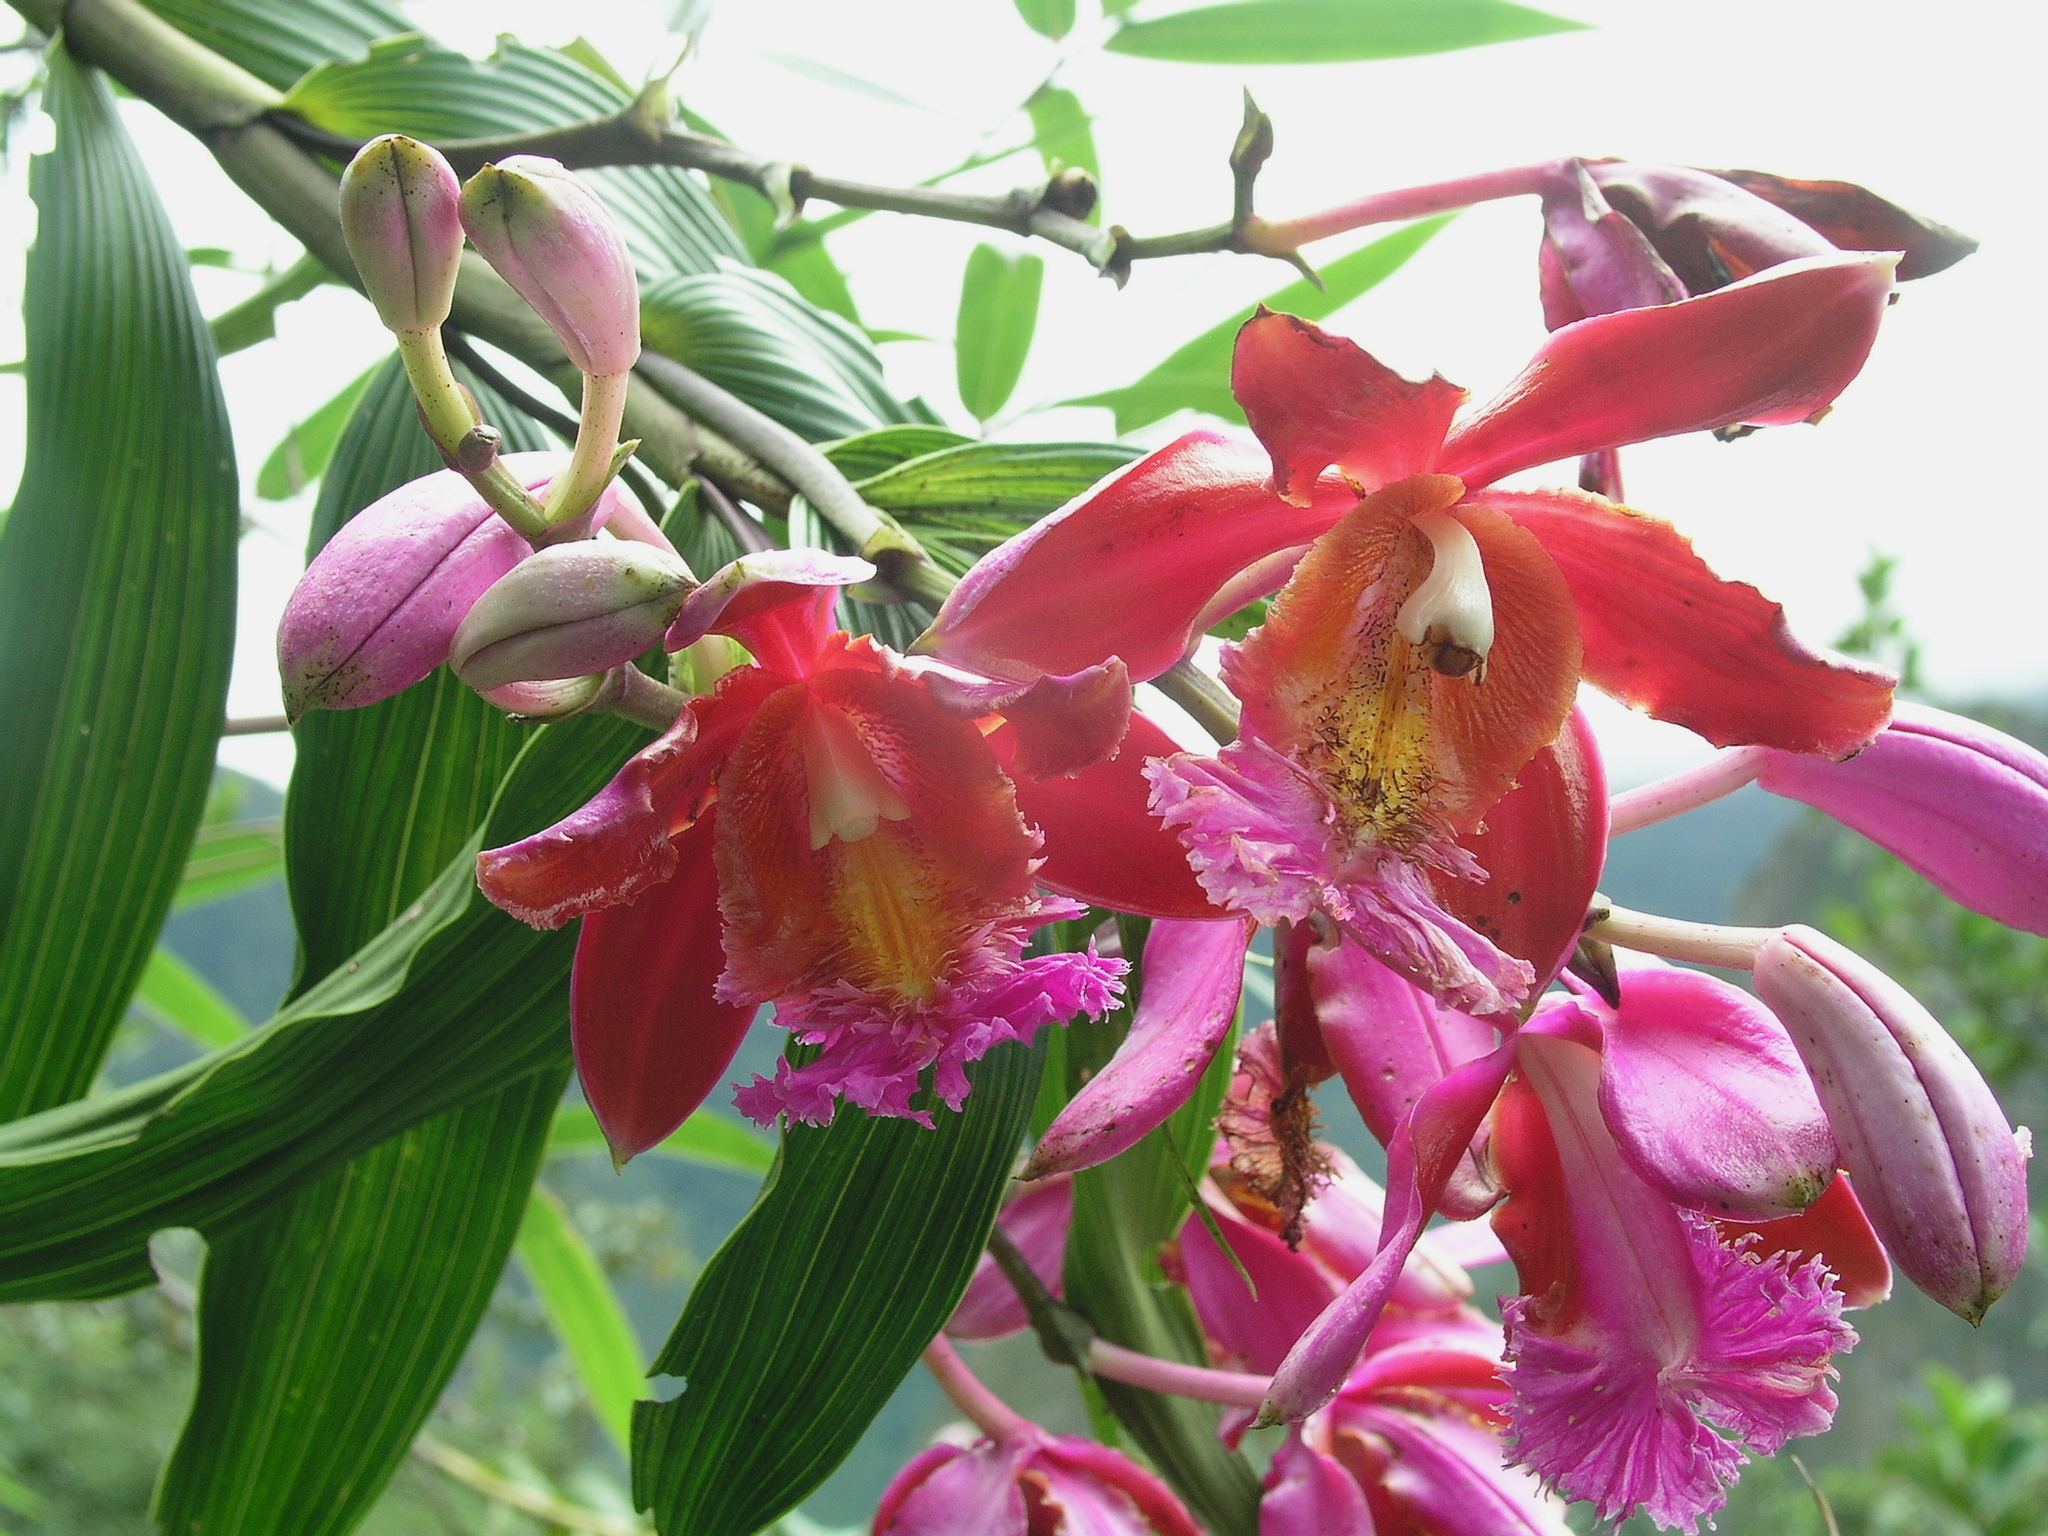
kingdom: Plantae
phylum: Tracheophyta
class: Liliopsida
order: Asparagales
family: Orchidaceae
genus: Sobralia
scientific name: Sobralia dichotoma
